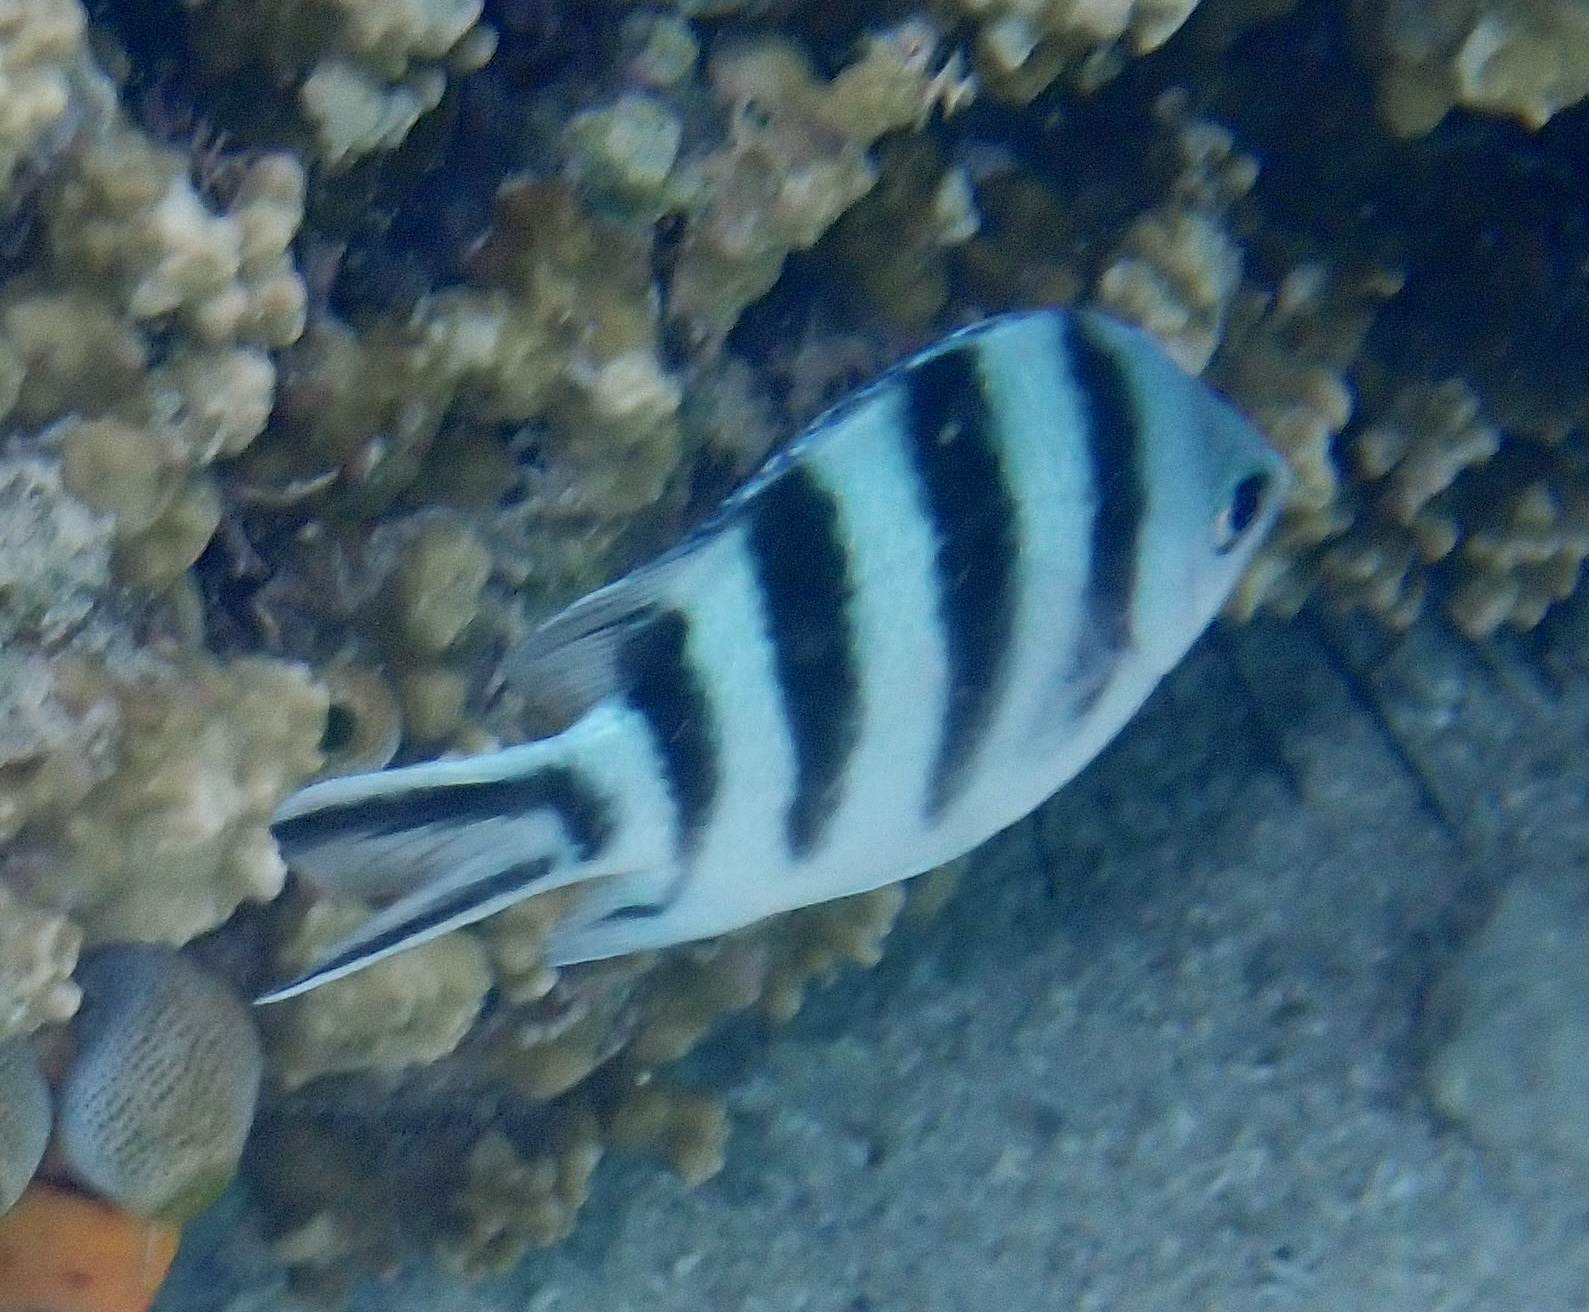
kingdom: Animalia
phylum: Chordata
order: Perciformes
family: Pomacentridae
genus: Abudefduf
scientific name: Abudefduf sexfasciatus
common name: Scissortail sergeant
